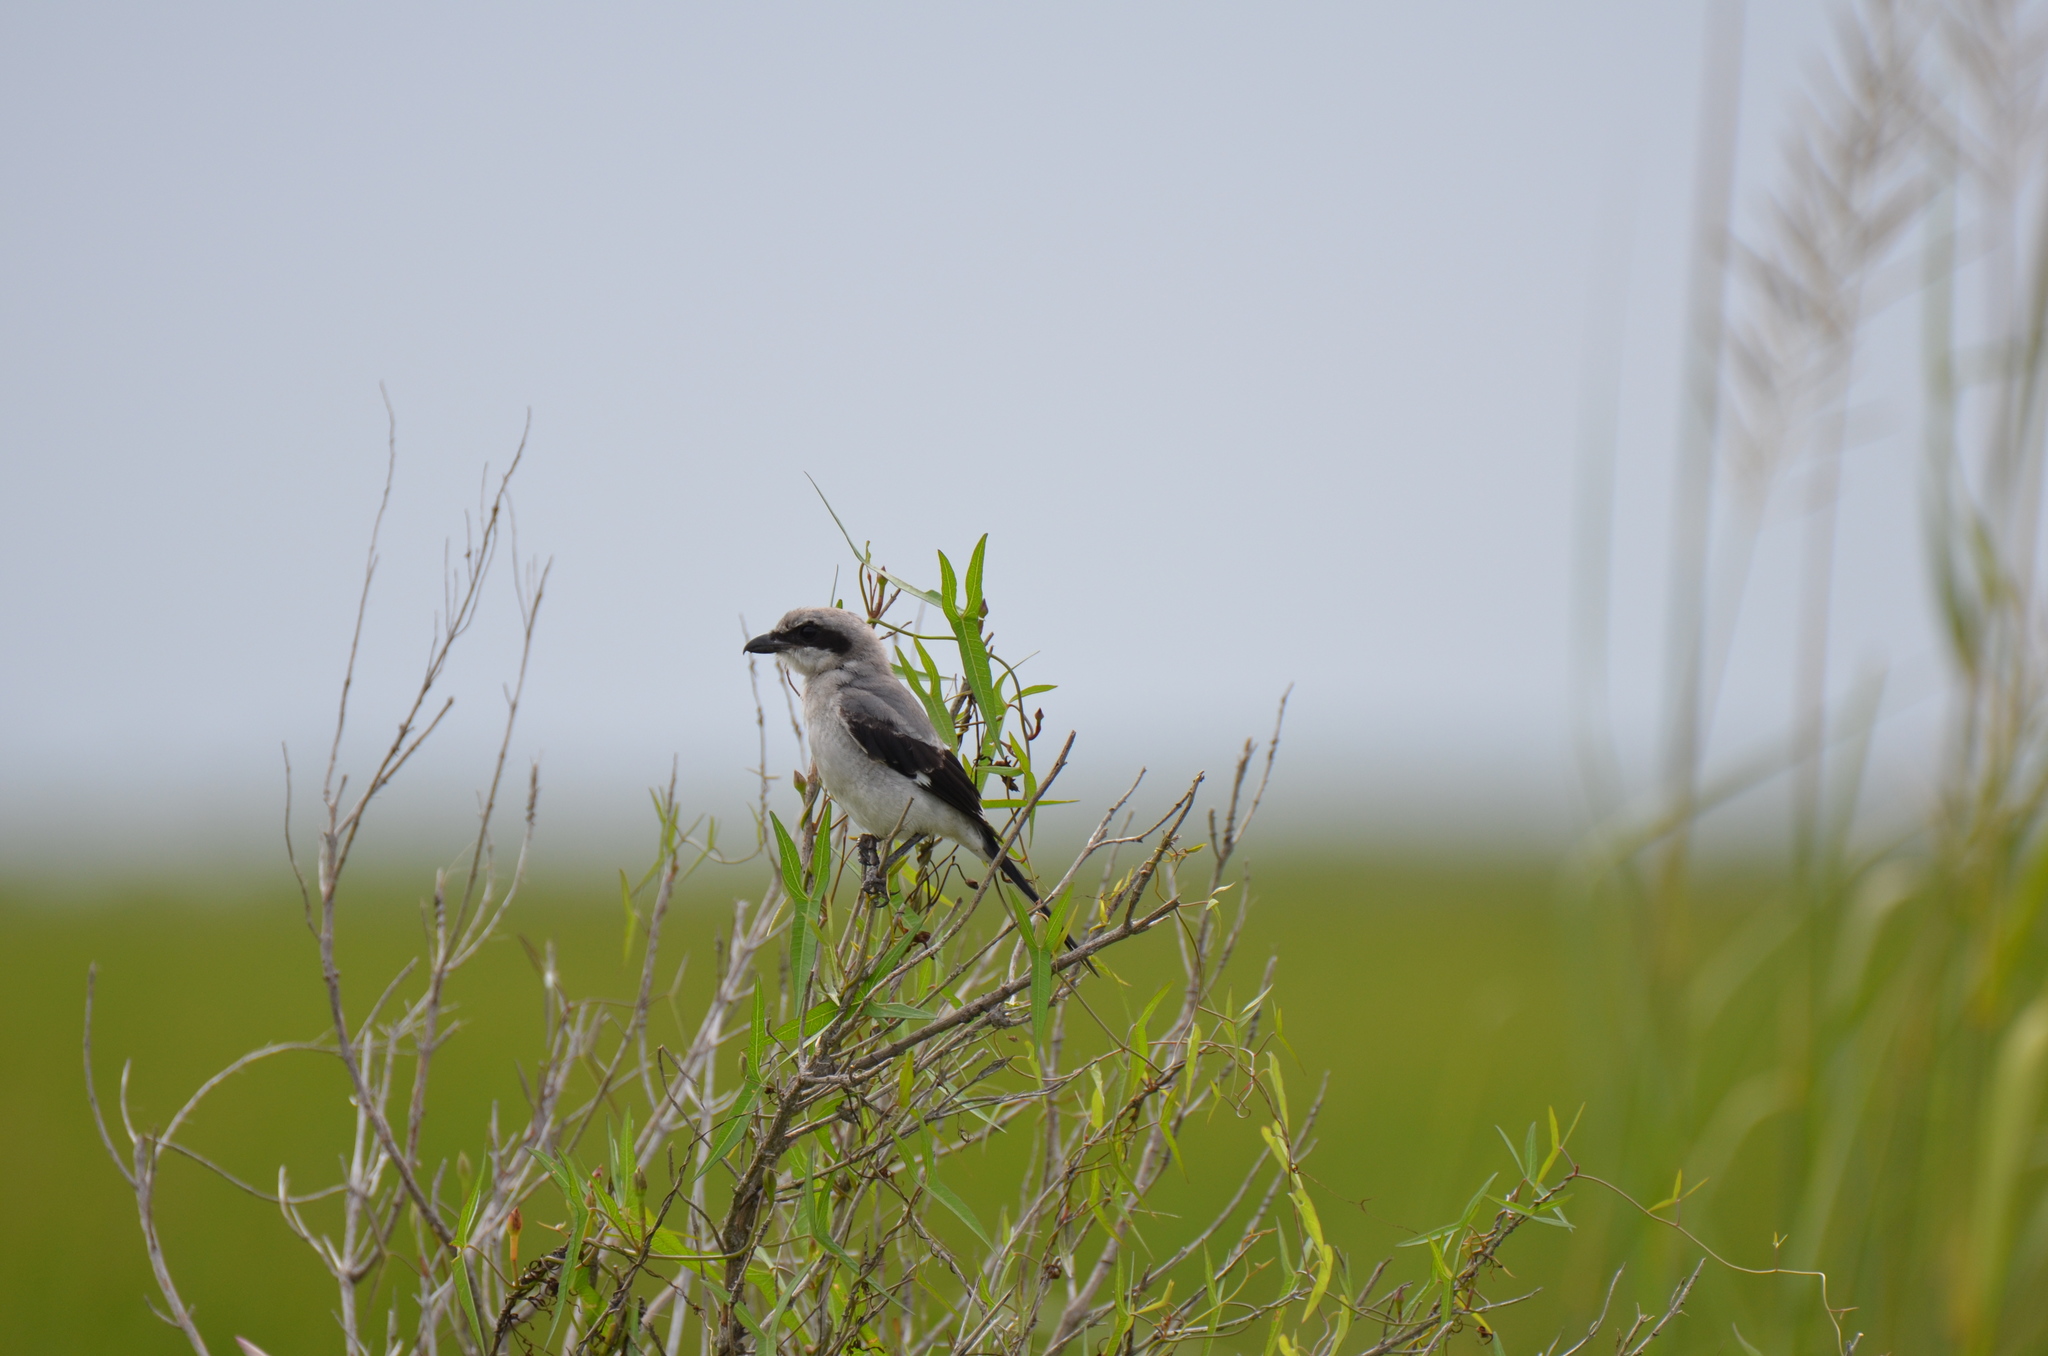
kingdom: Animalia
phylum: Chordata
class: Aves
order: Passeriformes
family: Laniidae
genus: Lanius
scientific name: Lanius ludovicianus
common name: Loggerhead shrike
